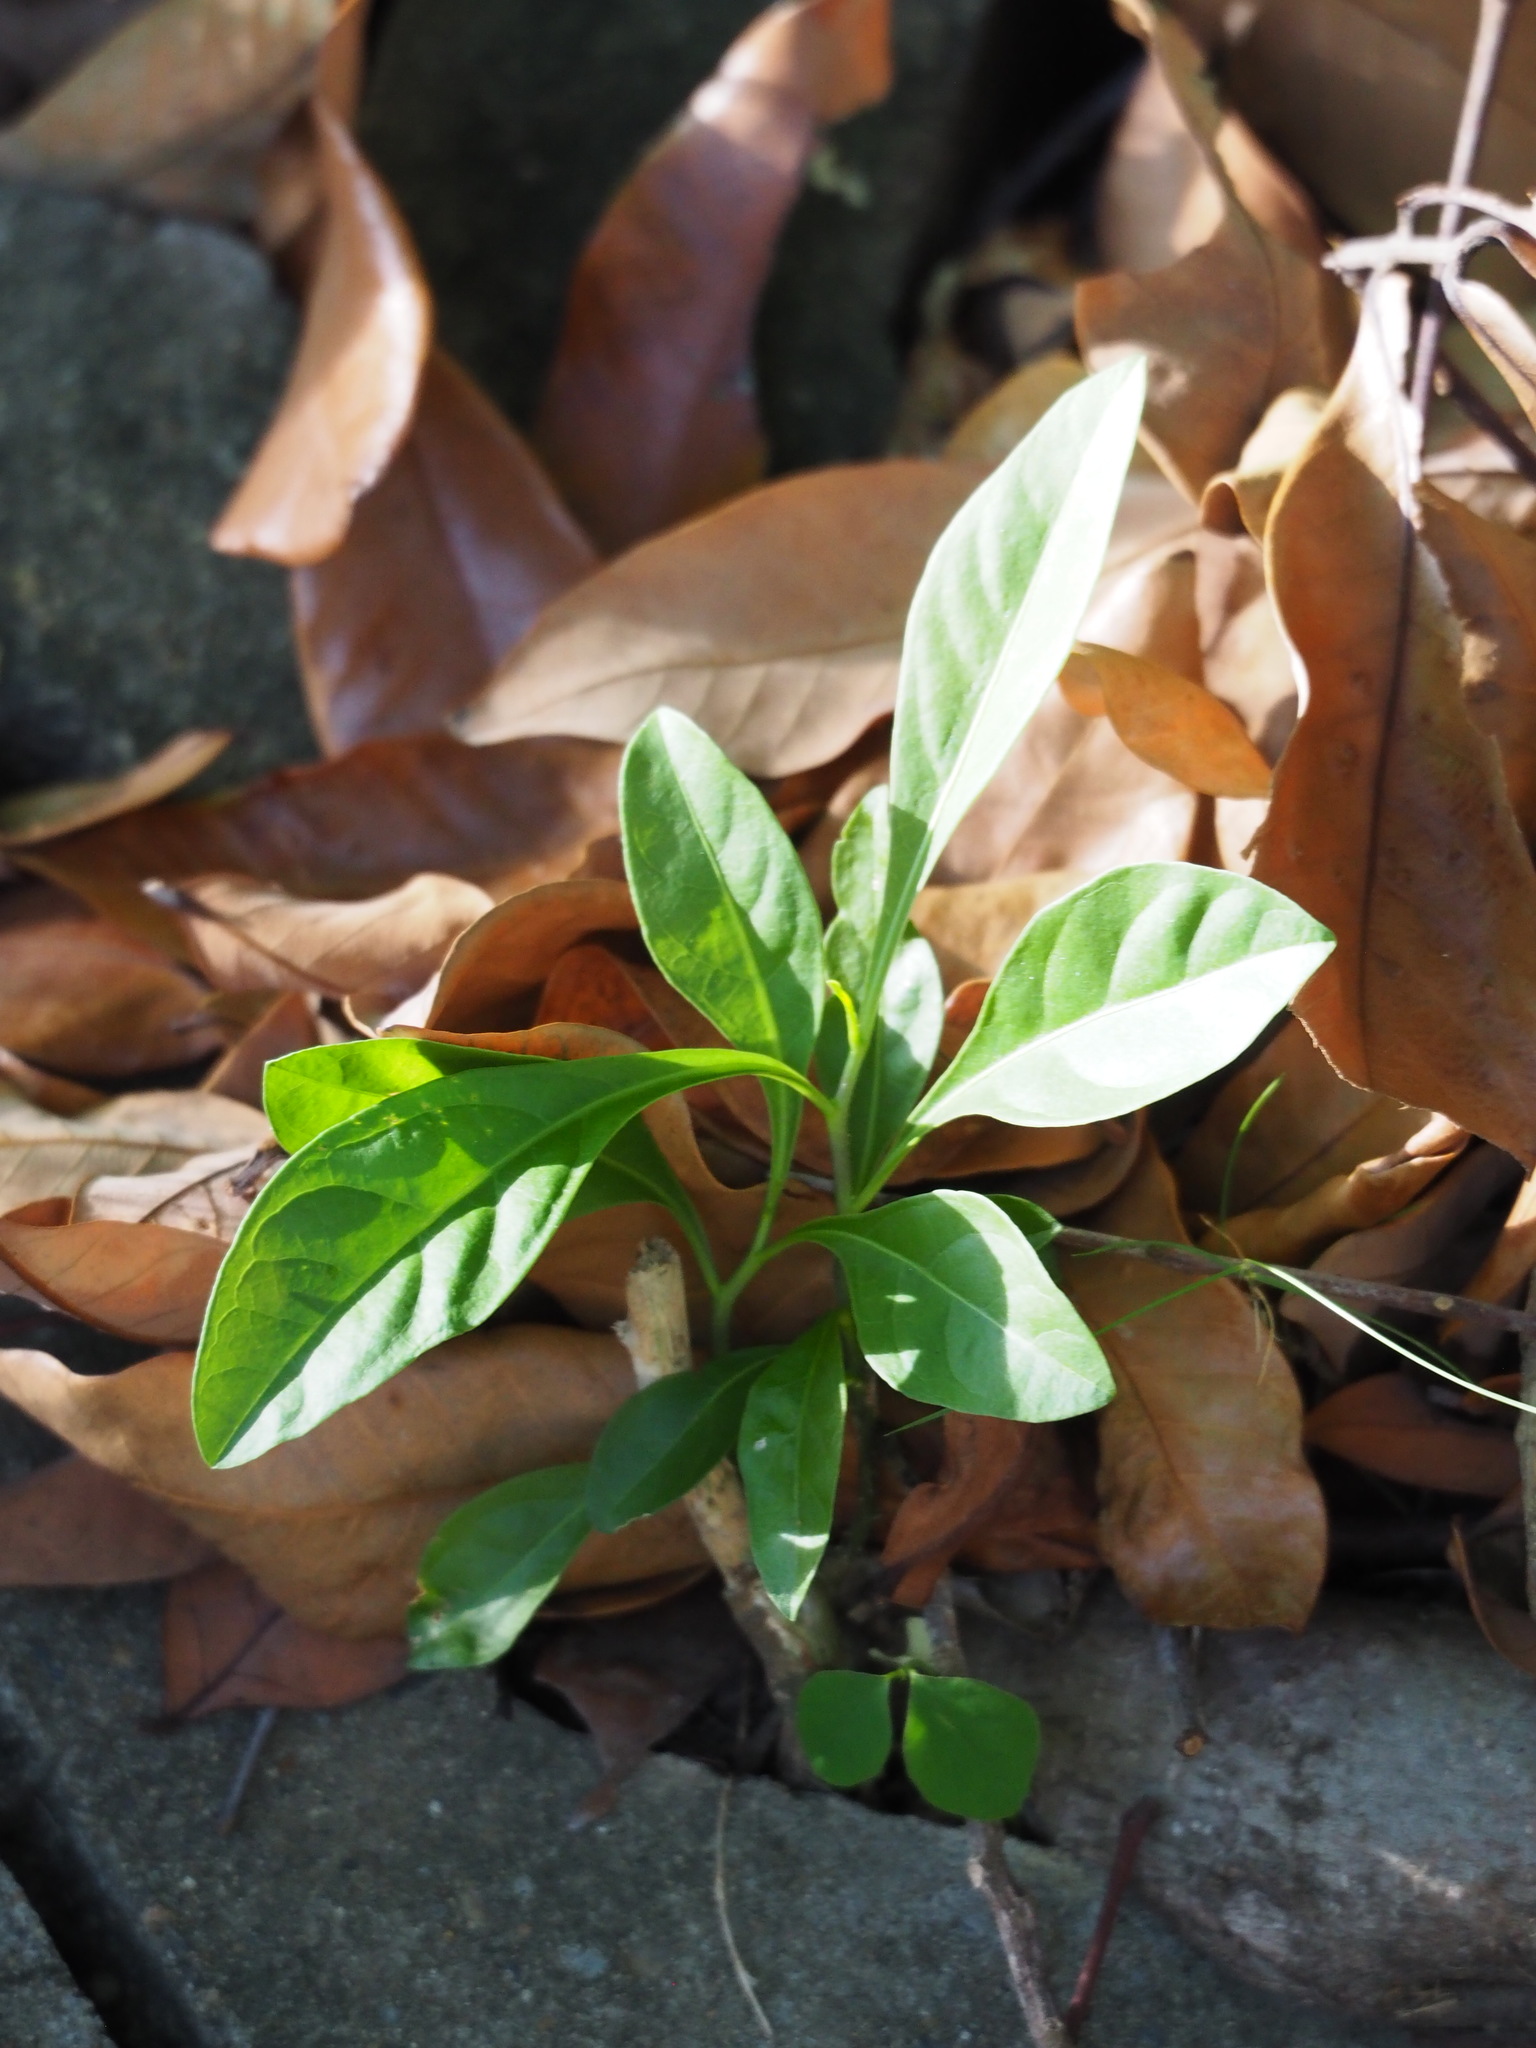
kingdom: Plantae
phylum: Tracheophyta
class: Magnoliopsida
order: Solanales
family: Solanaceae
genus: Solanum
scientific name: Solanum diphyllum
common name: Twoleaf nightshade
